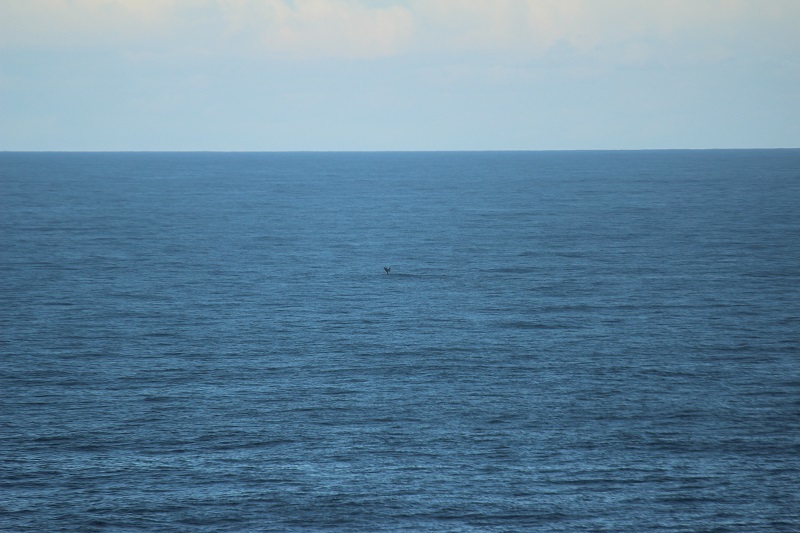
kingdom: Animalia
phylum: Chordata
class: Mammalia
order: Cetacea
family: Balaenidae
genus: Eubalaena
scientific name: Eubalaena australis
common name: Southern right whale
